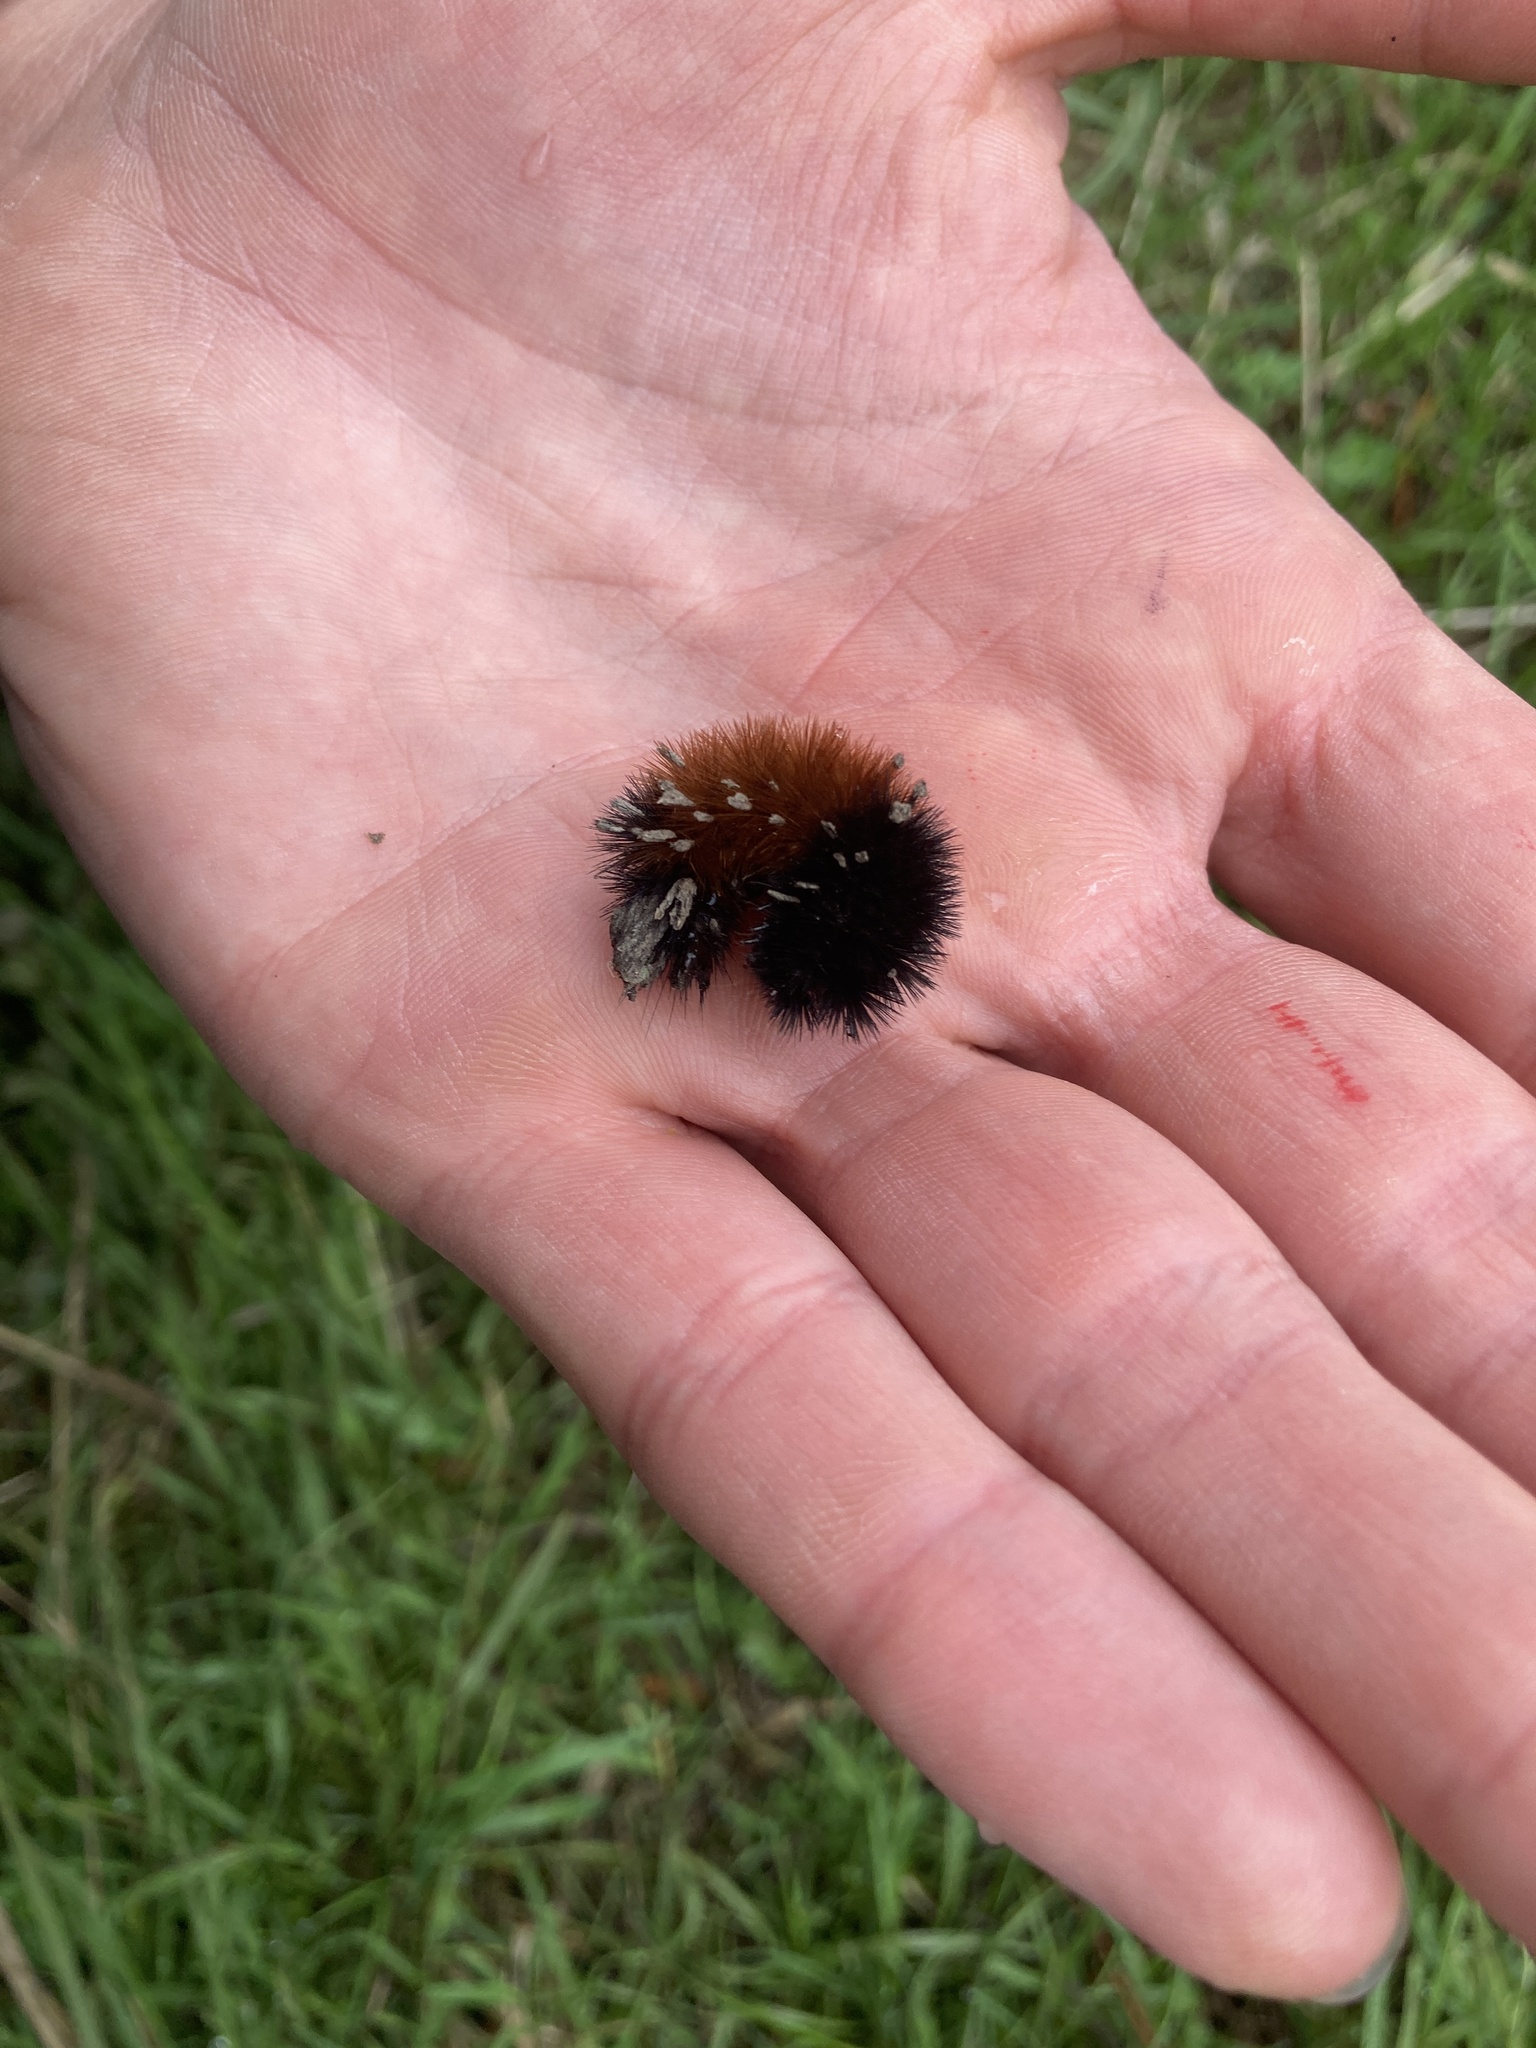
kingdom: Animalia
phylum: Arthropoda
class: Insecta
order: Lepidoptera
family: Erebidae
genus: Pyrrharctia
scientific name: Pyrrharctia isabella
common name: Isabella tiger moth
